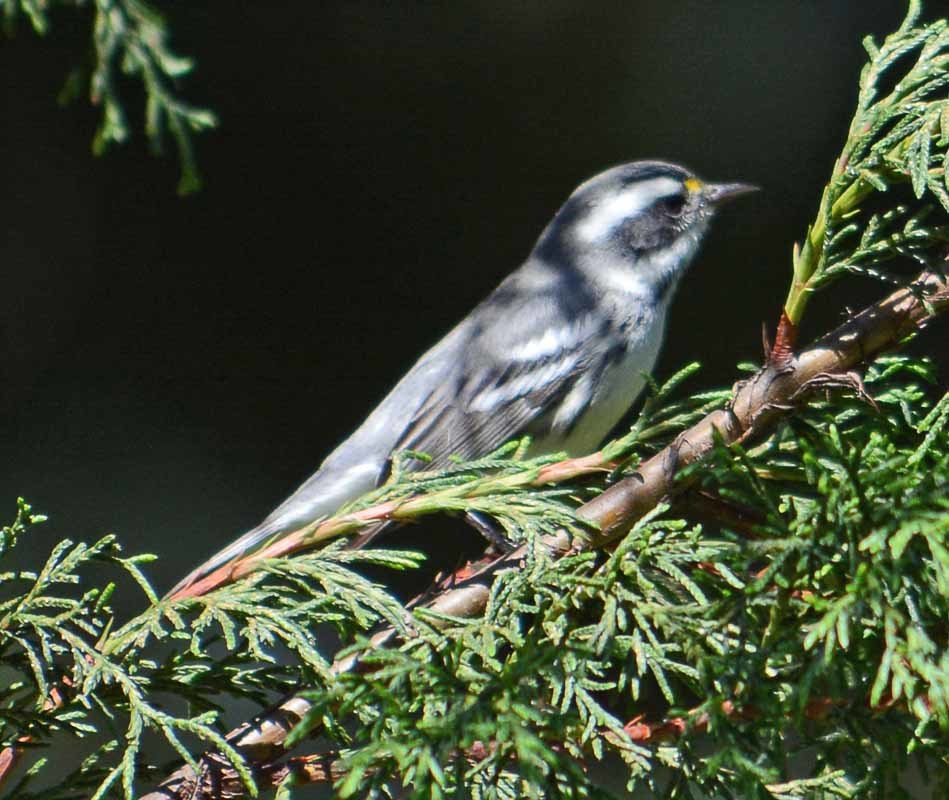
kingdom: Animalia
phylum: Chordata
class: Aves
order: Passeriformes
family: Parulidae
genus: Setophaga
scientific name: Setophaga nigrescens
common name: Black-throated gray warbler
